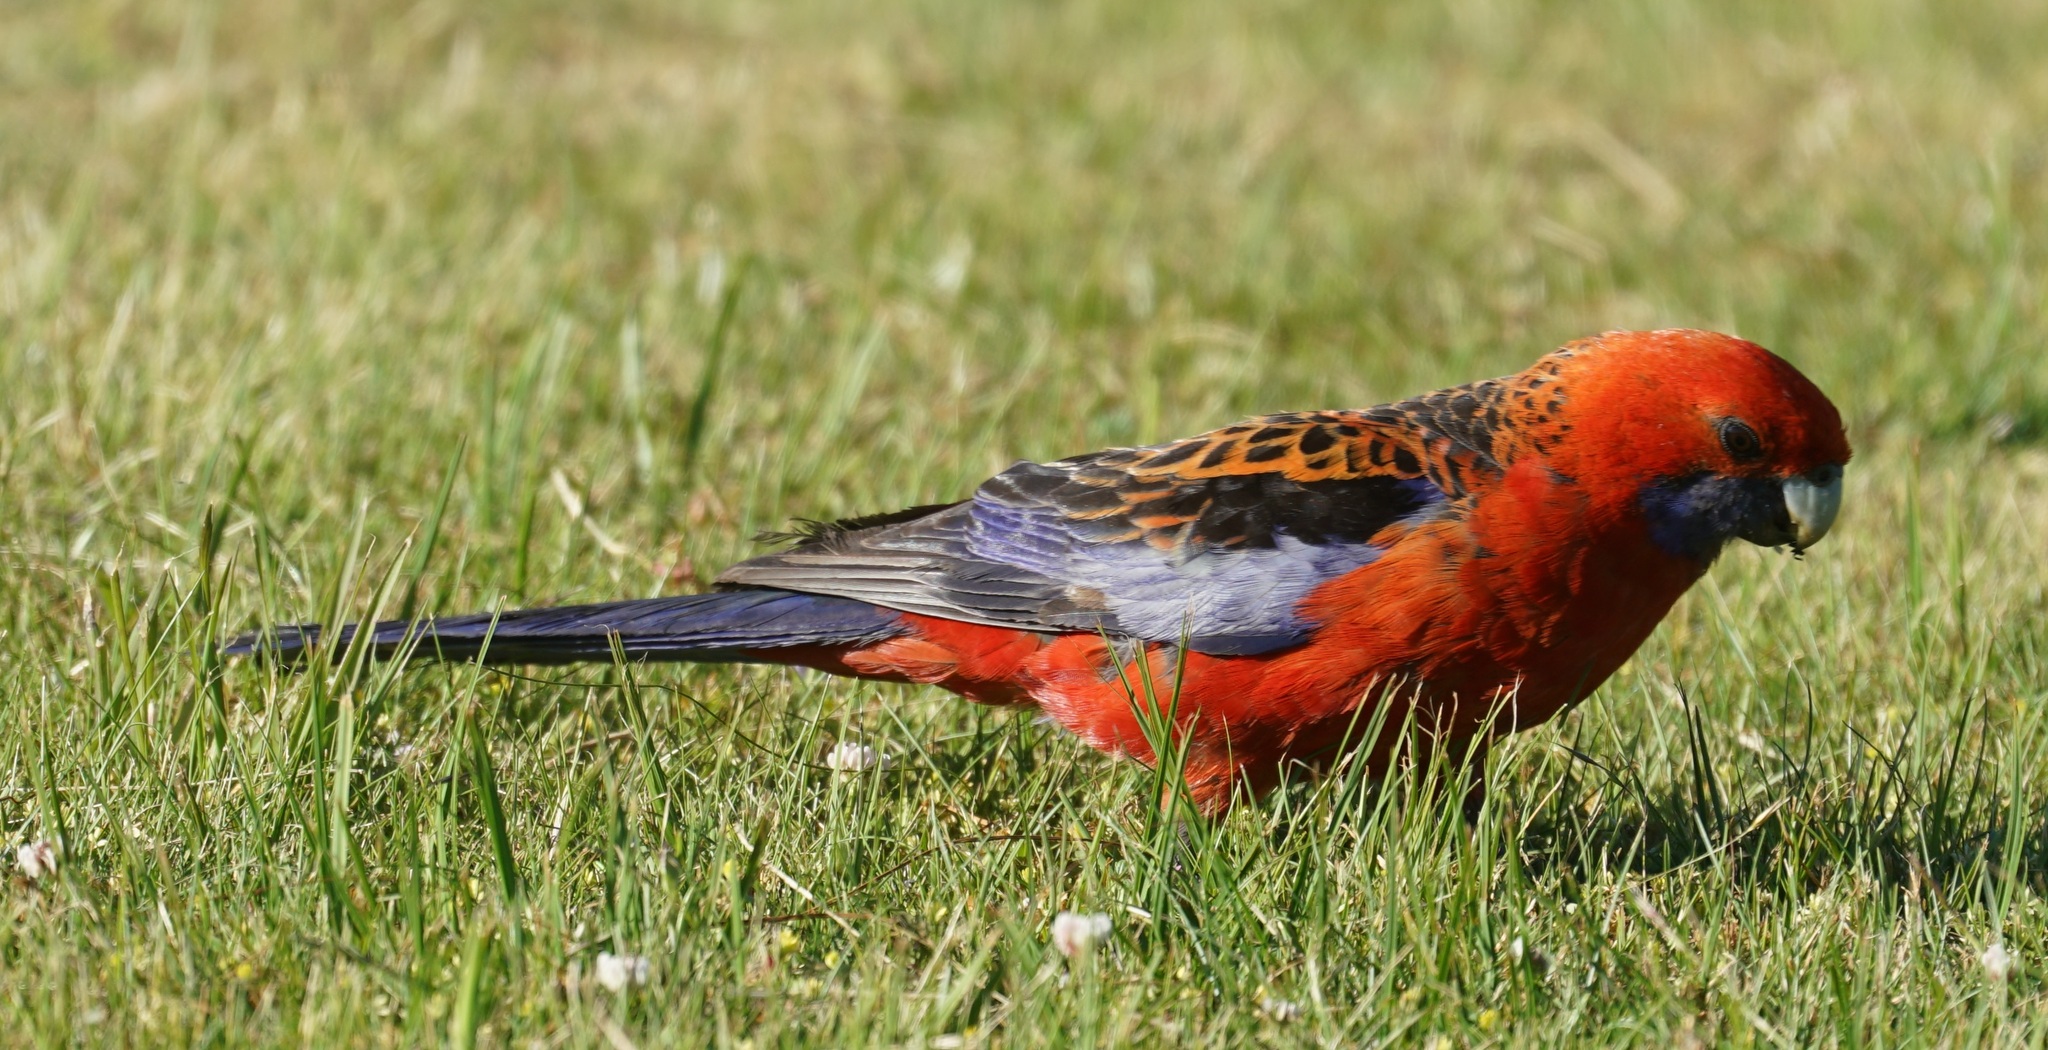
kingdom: Animalia
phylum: Chordata
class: Aves
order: Psittaciformes
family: Psittacidae
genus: Platycercus
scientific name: Platycercus elegans
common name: Crimson rosella
